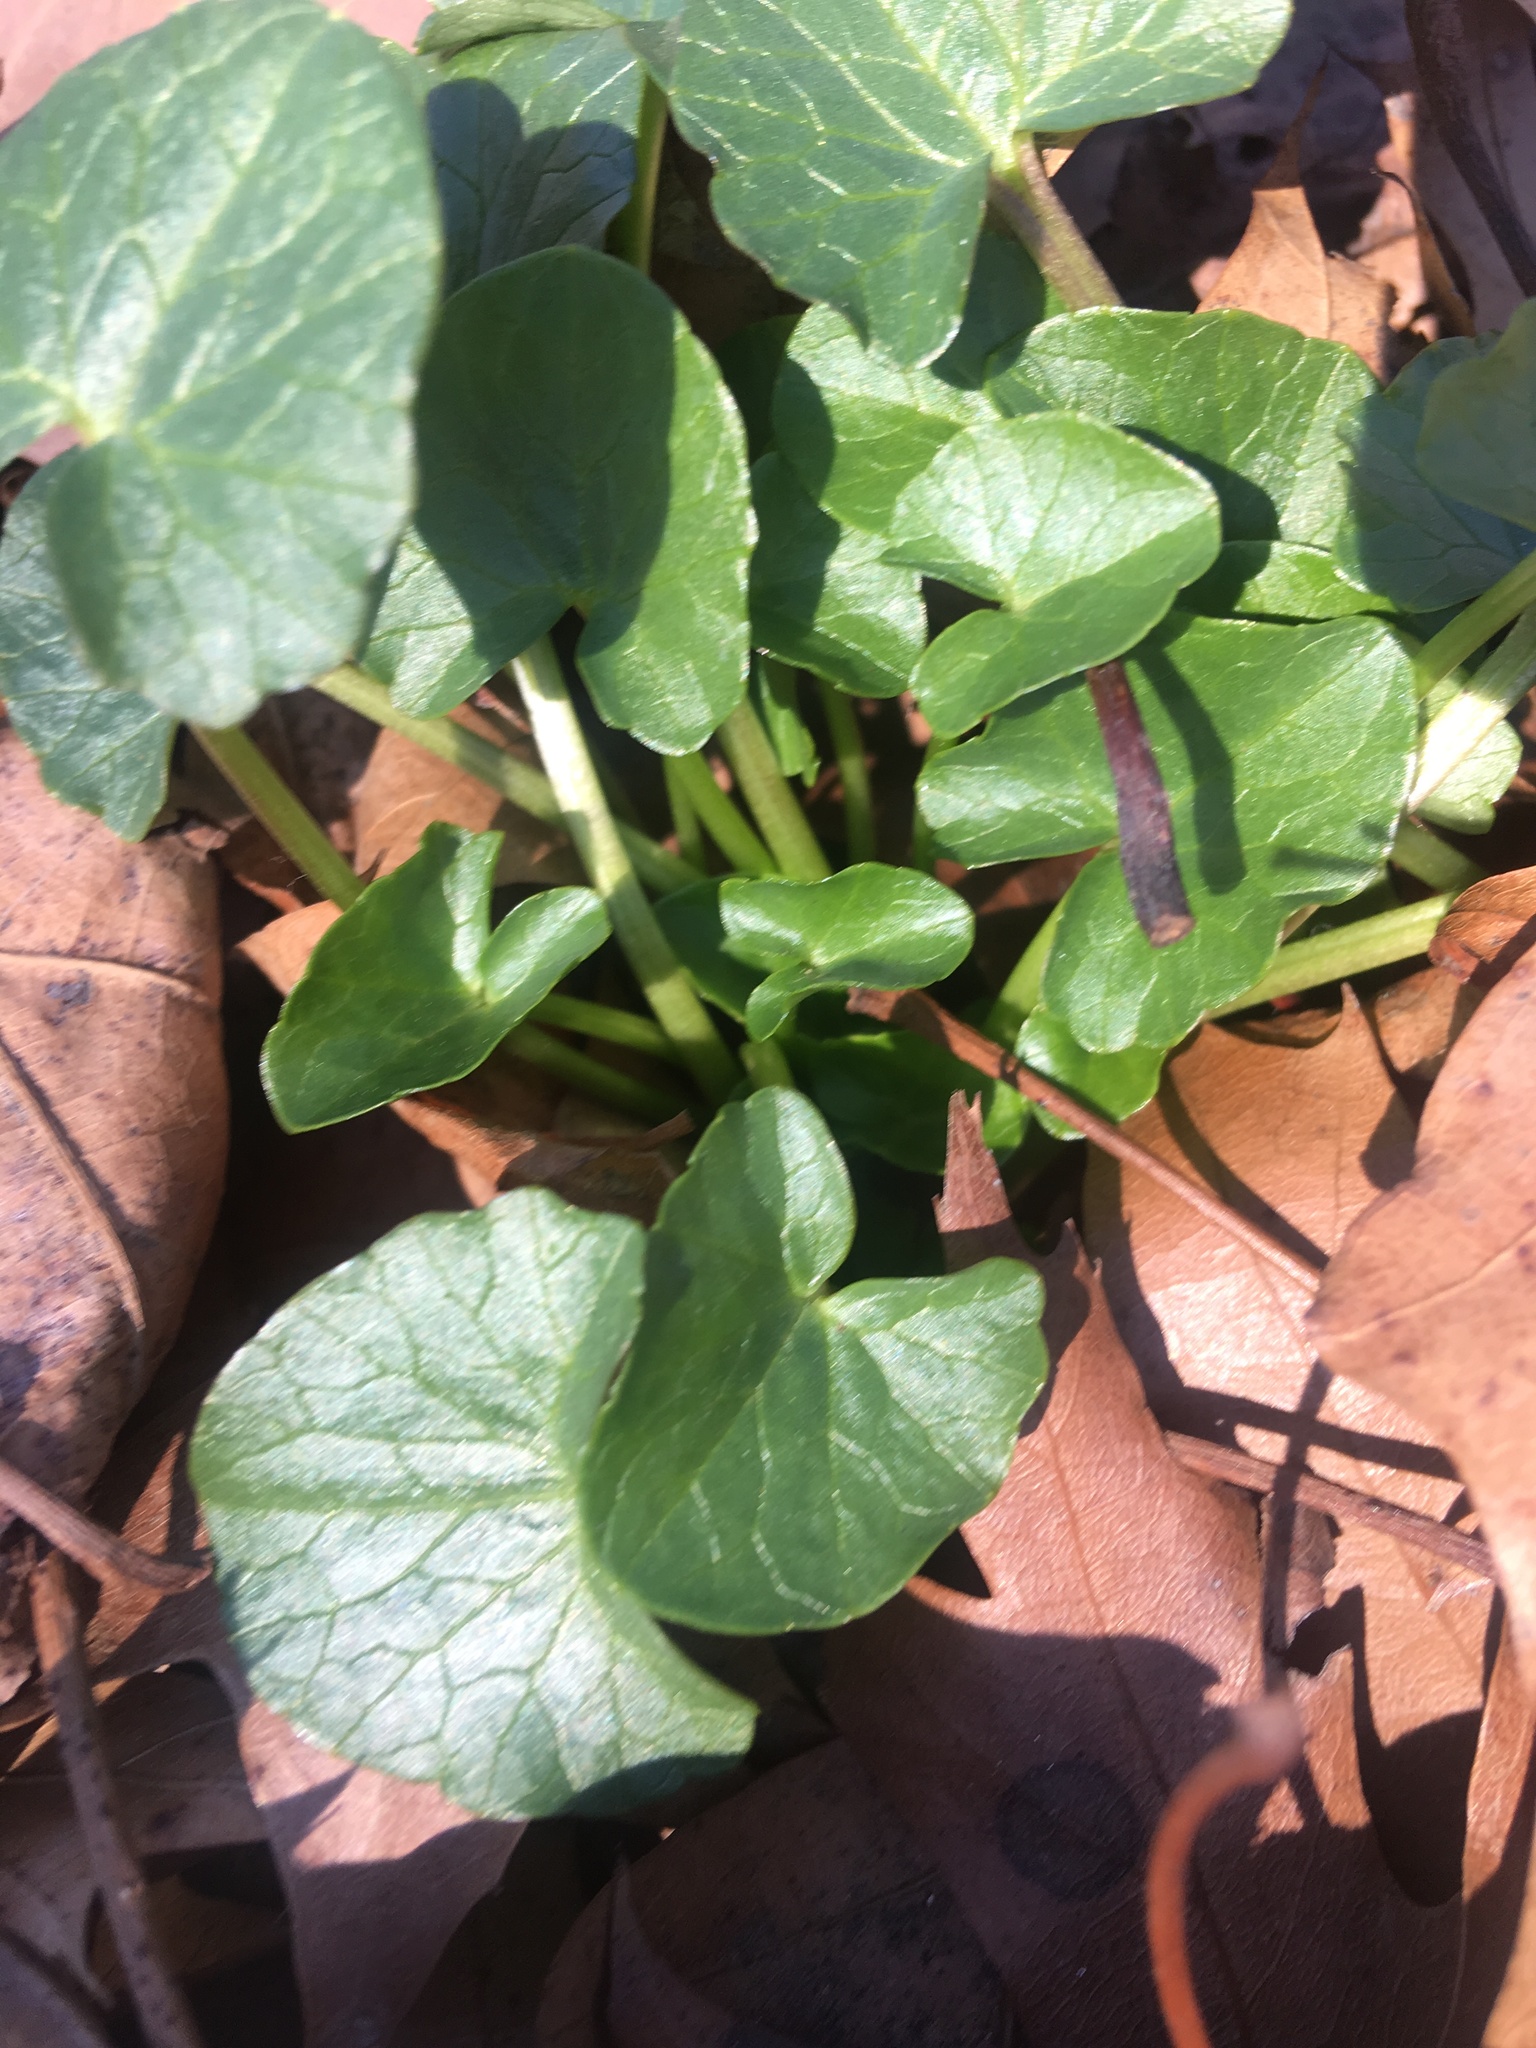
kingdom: Plantae
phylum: Tracheophyta
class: Magnoliopsida
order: Ranunculales
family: Ranunculaceae
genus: Ficaria
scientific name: Ficaria verna
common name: Lesser celandine
